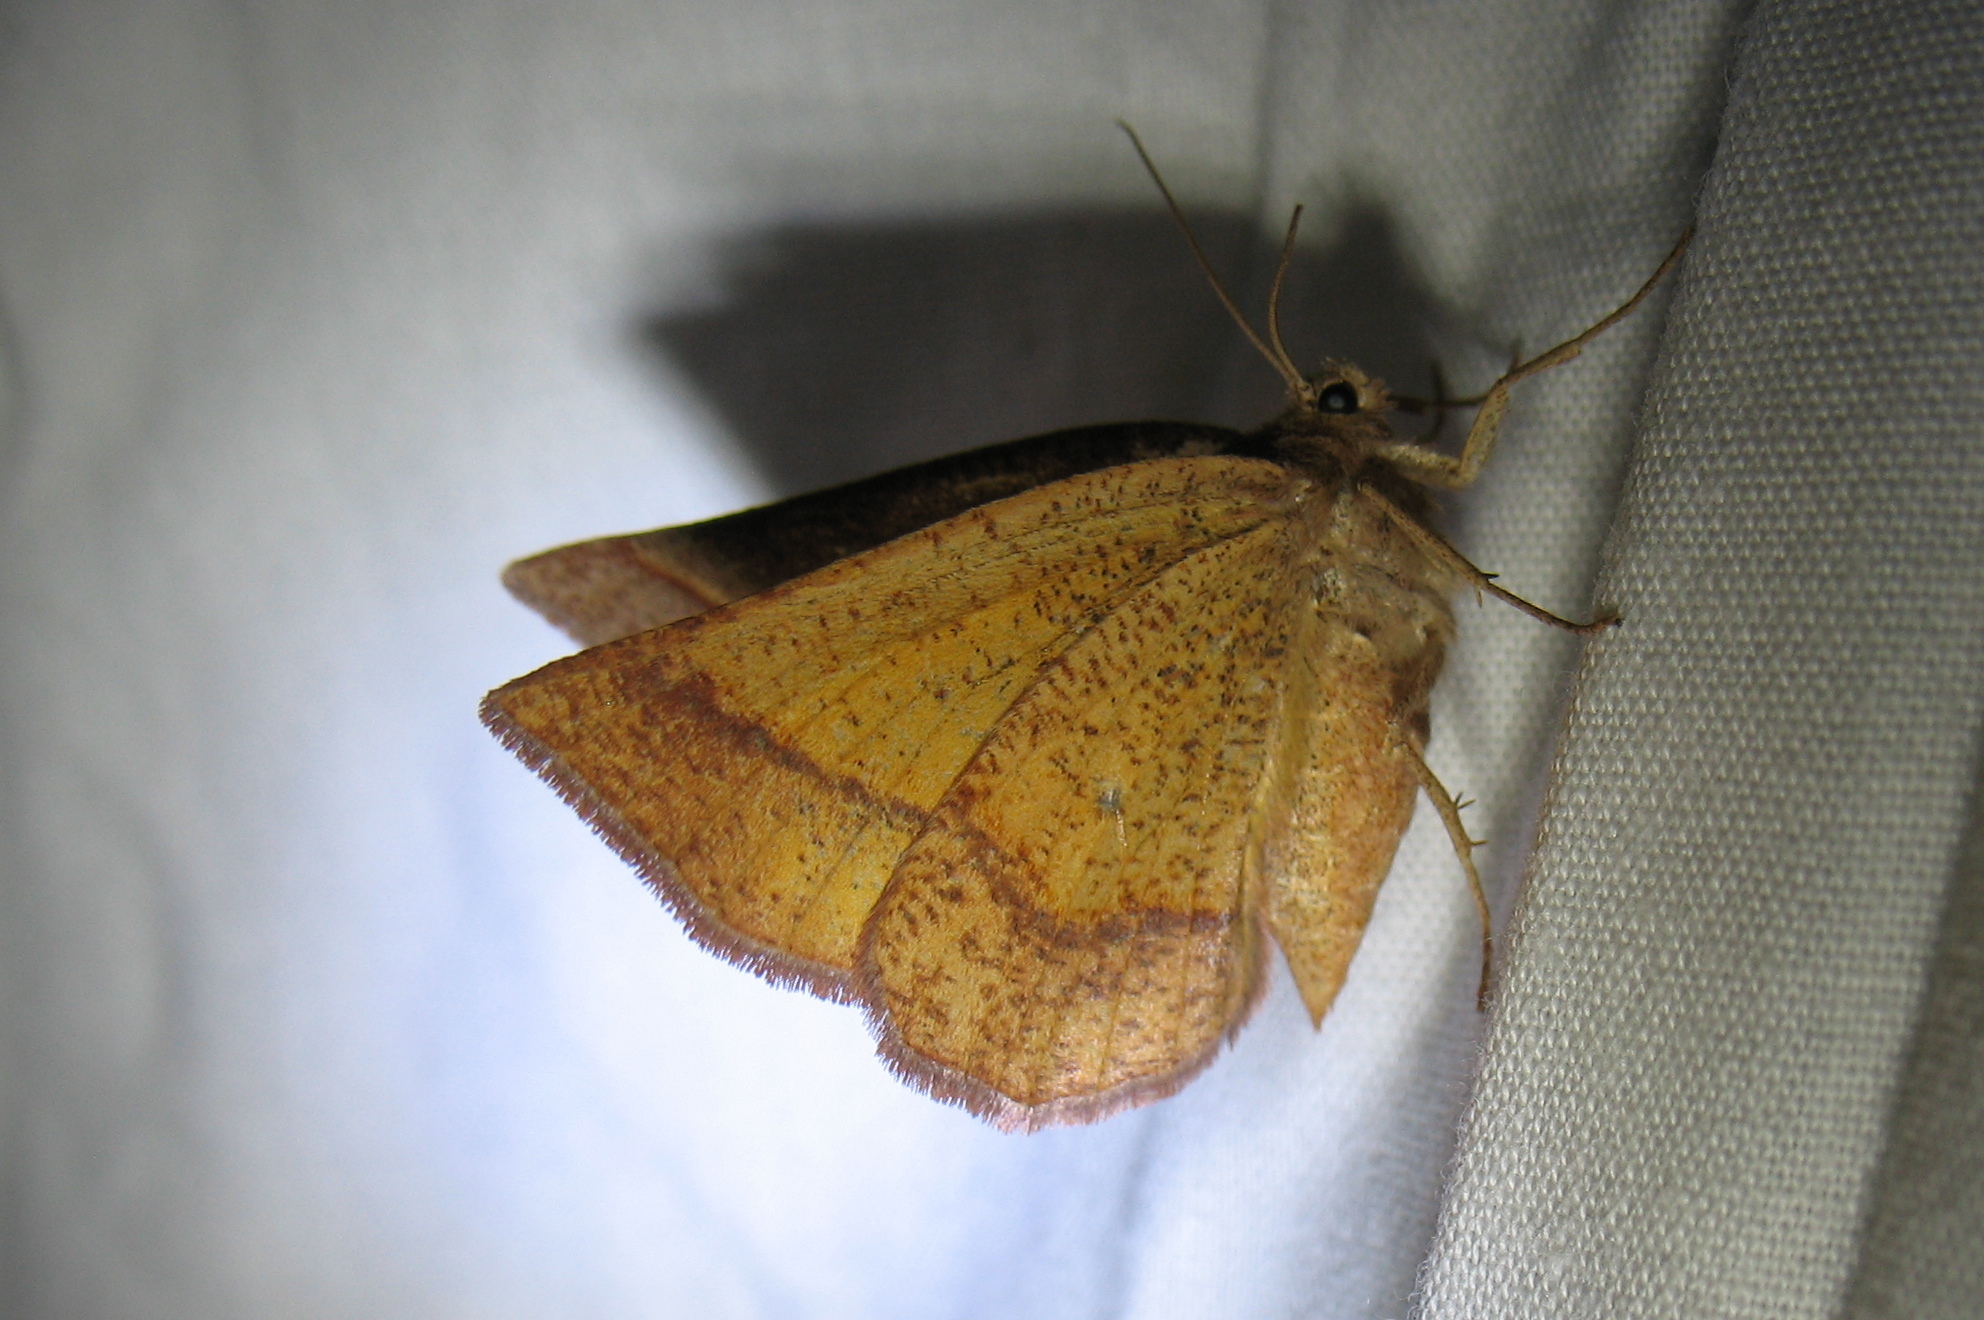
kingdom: Animalia
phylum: Arthropoda
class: Insecta
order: Lepidoptera
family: Geometridae
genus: Metarranthis
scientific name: Metarranthis obfirmaria
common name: Yellow-washed metarranthis
